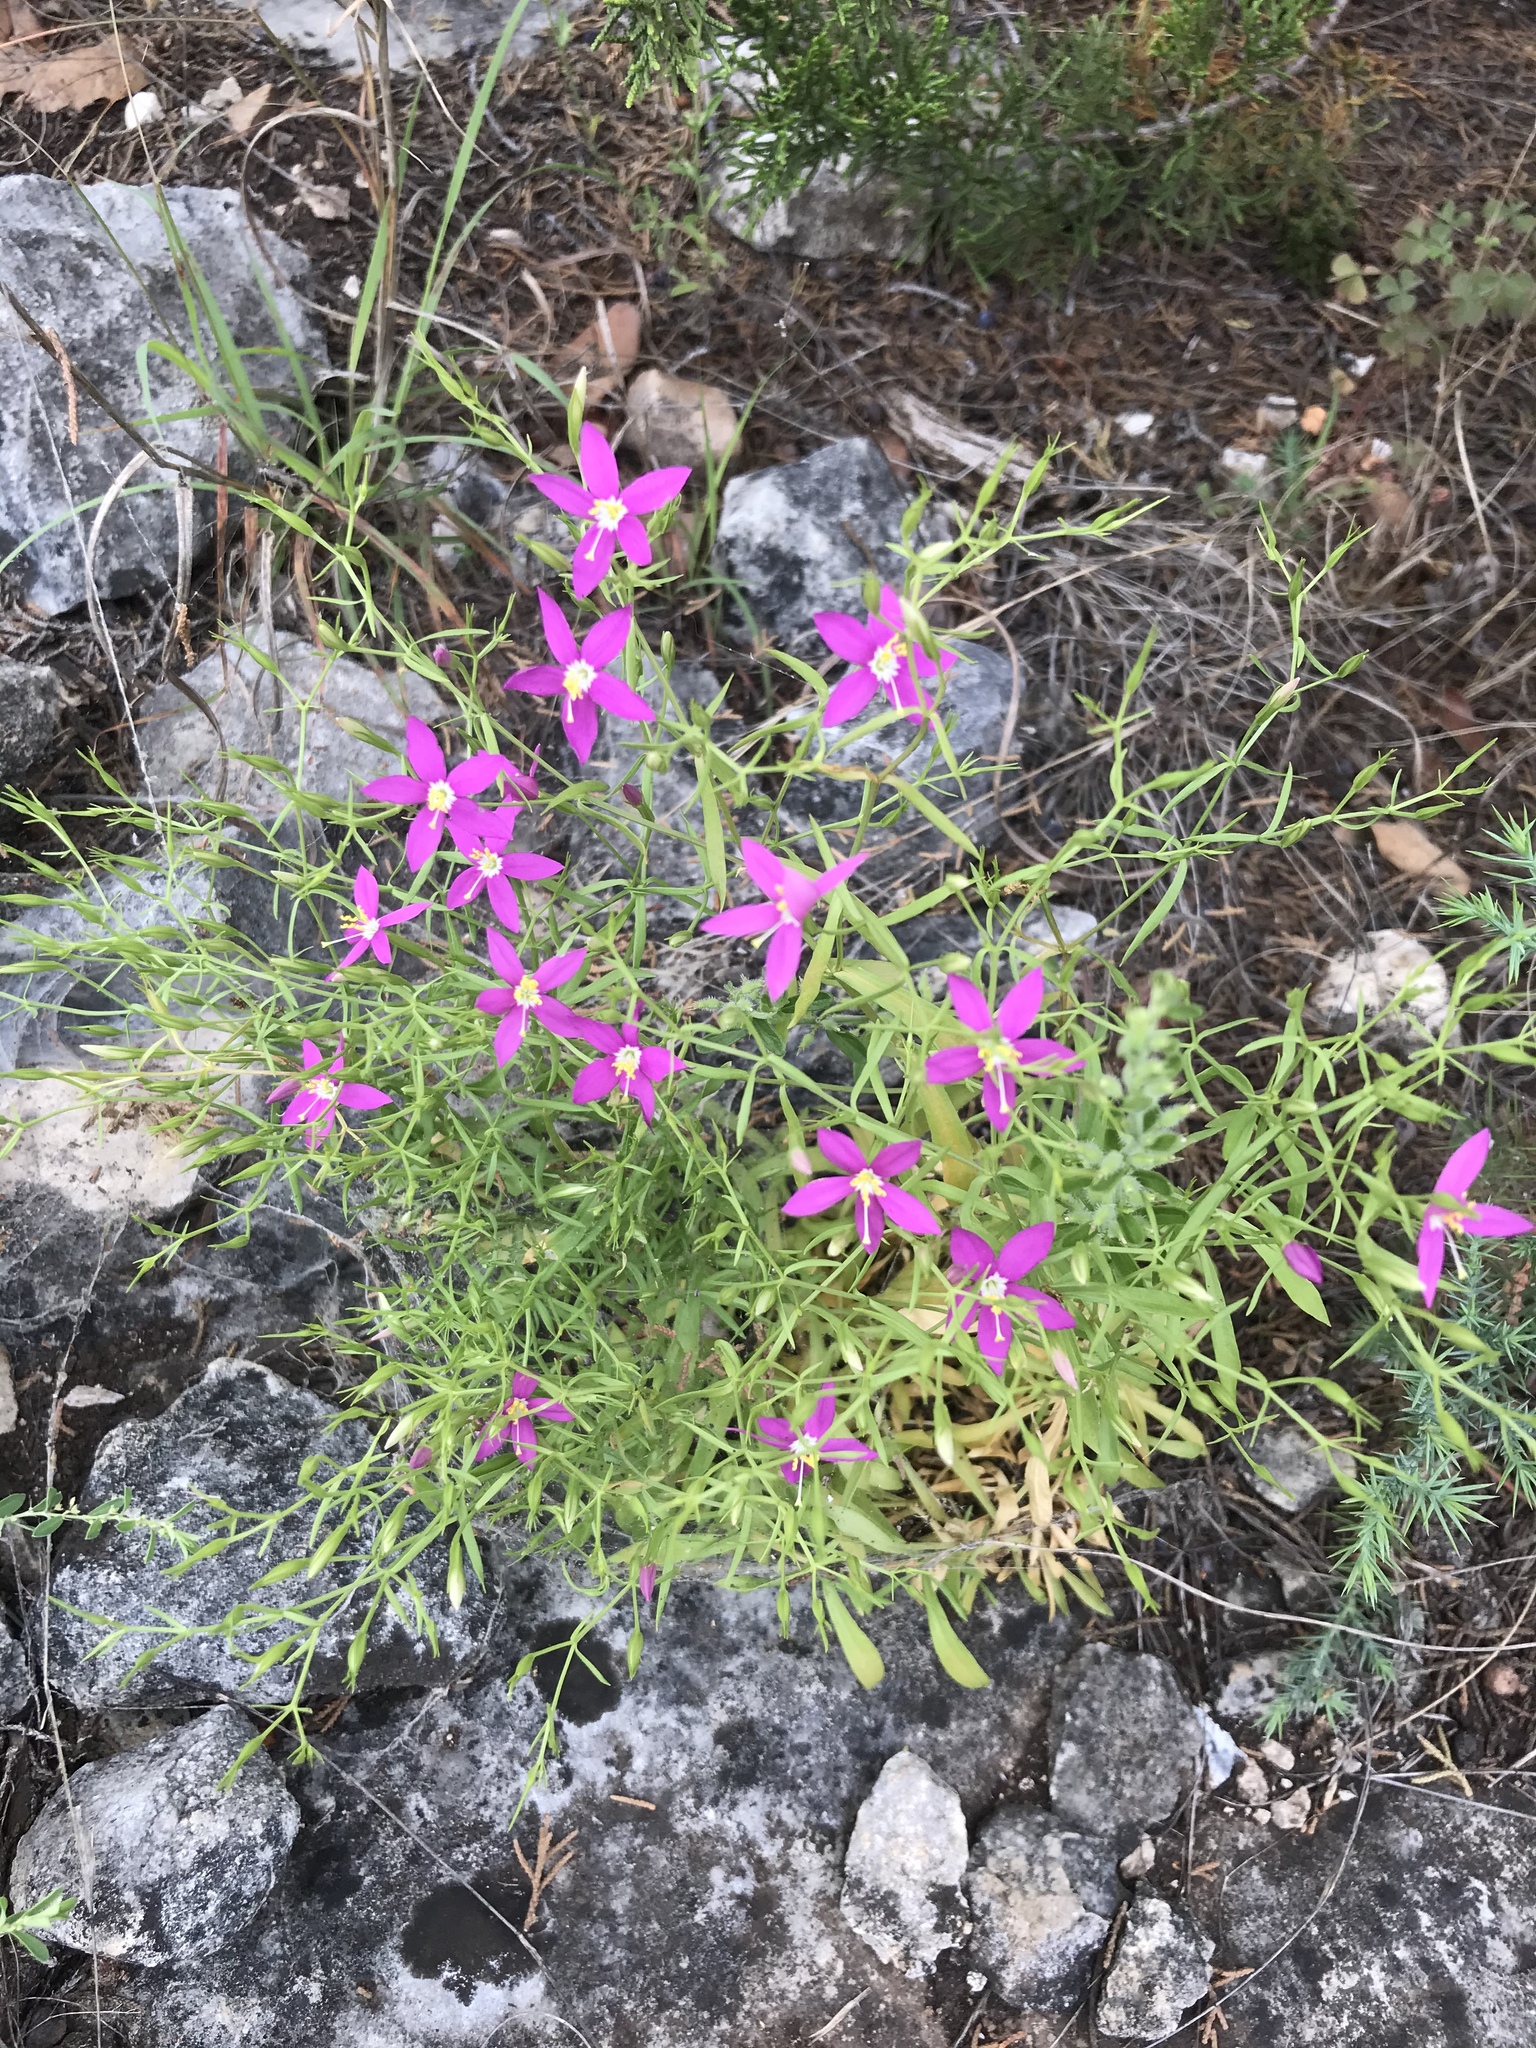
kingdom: Plantae
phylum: Tracheophyta
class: Magnoliopsida
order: Gentianales
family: Gentianaceae
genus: Zeltnera
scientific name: Zeltnera calycosa
